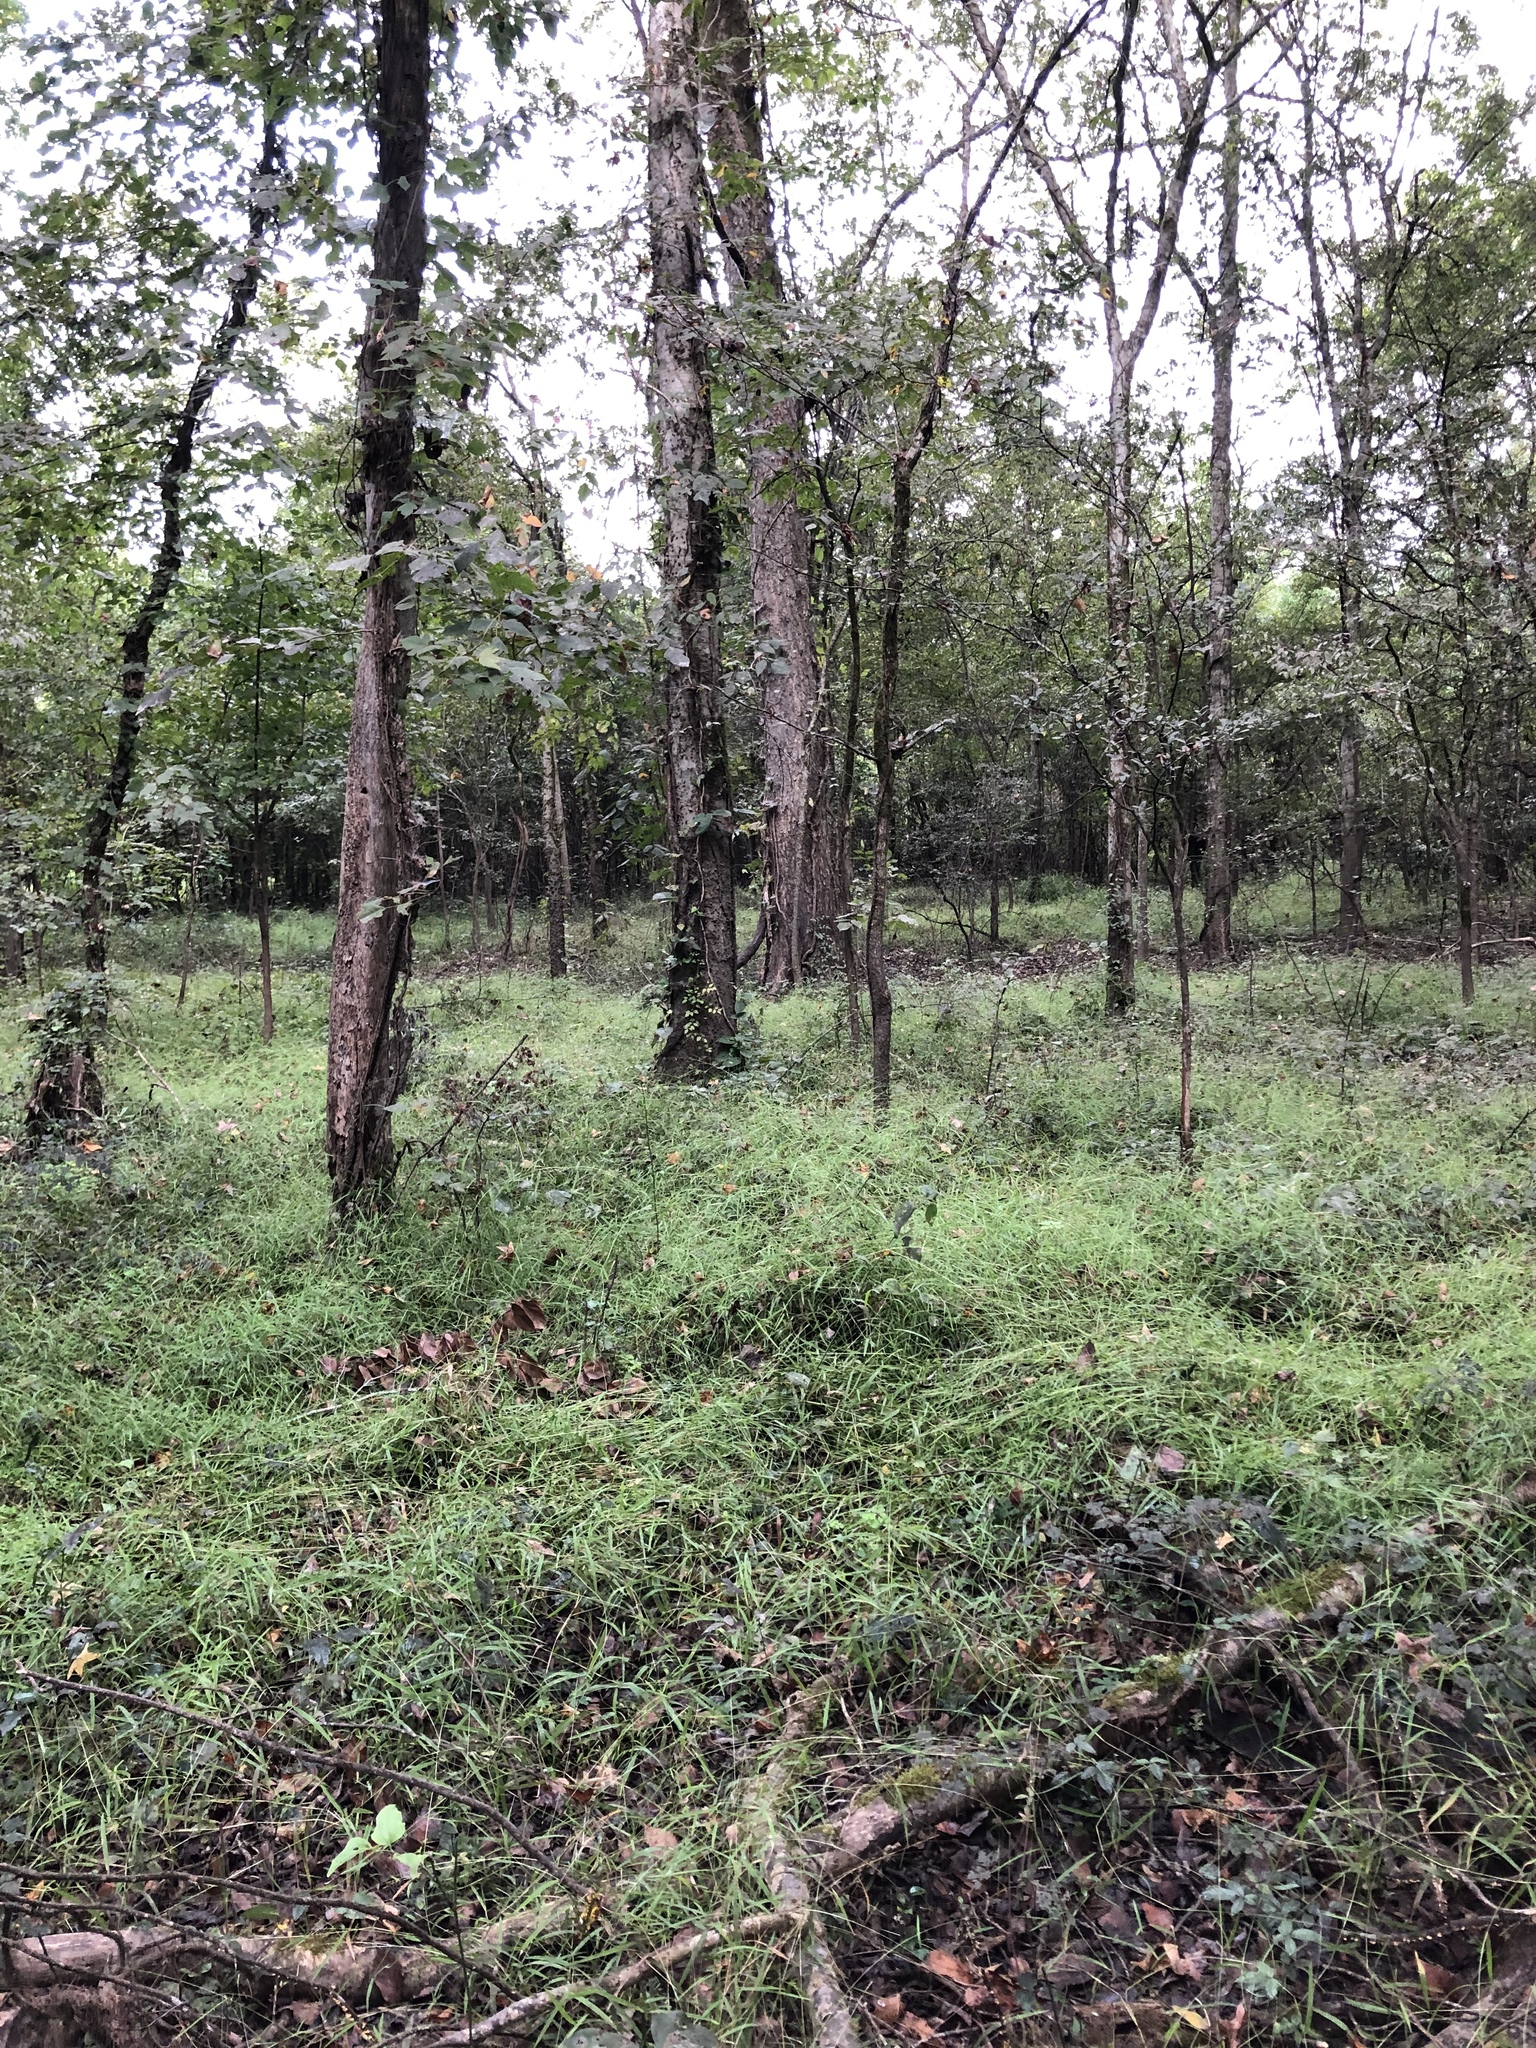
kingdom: Plantae
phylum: Tracheophyta
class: Liliopsida
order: Asparagales
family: Orchidaceae
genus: Spiranthes
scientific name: Spiranthes ovalis
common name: October ladies'-tresses
